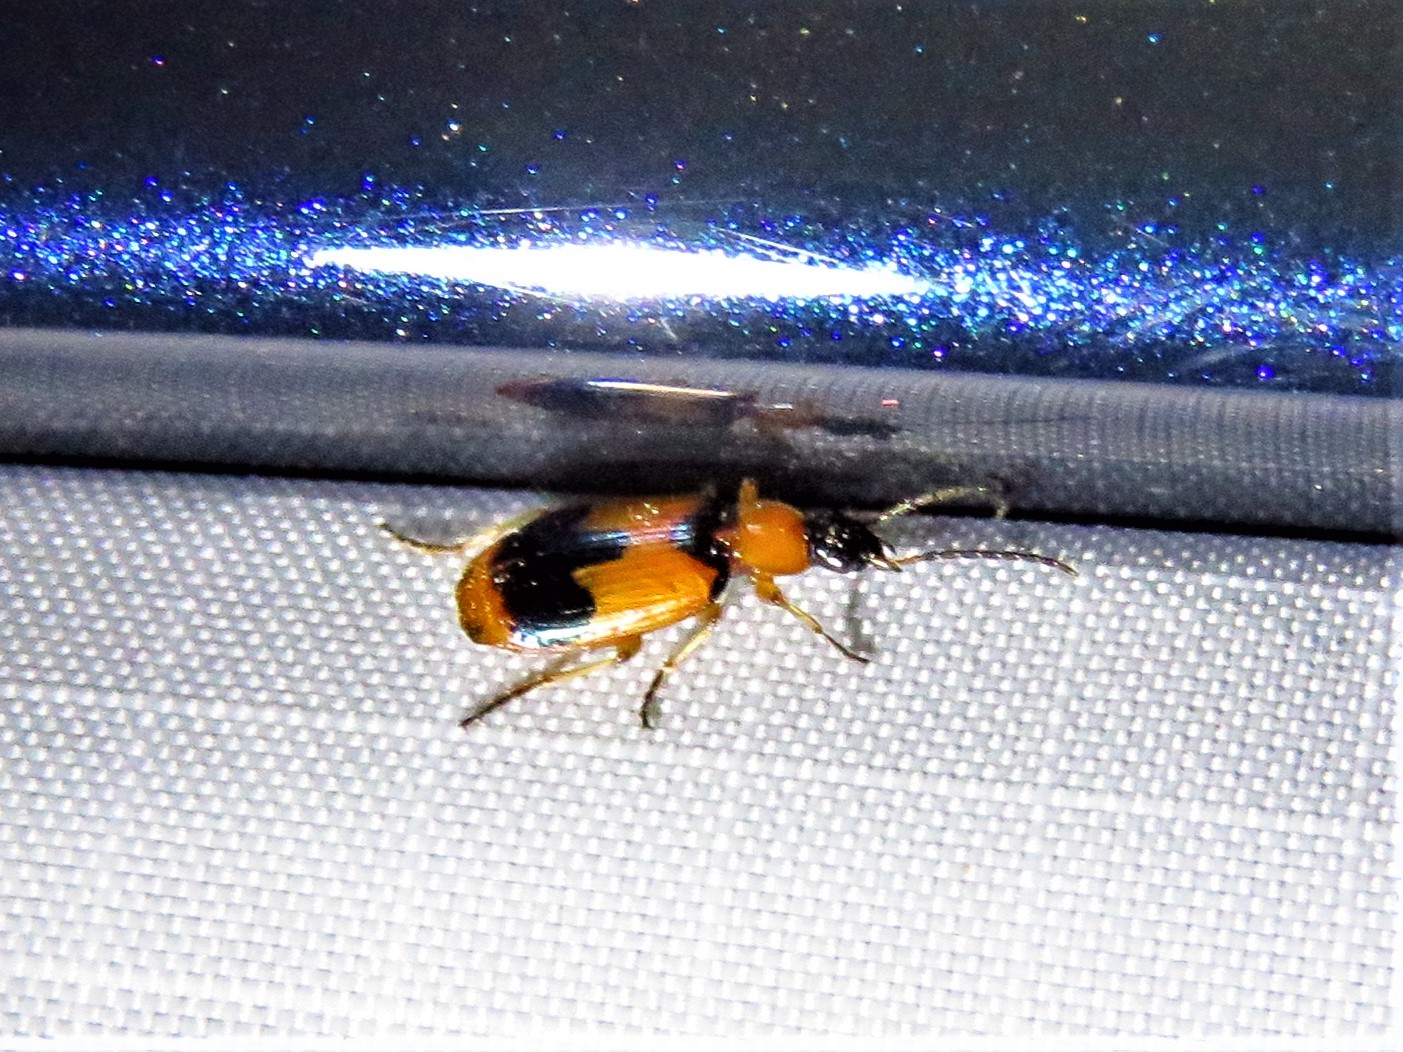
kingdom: Animalia
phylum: Arthropoda
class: Insecta
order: Coleoptera
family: Carabidae
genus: Lebia
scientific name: Lebia pulchella
